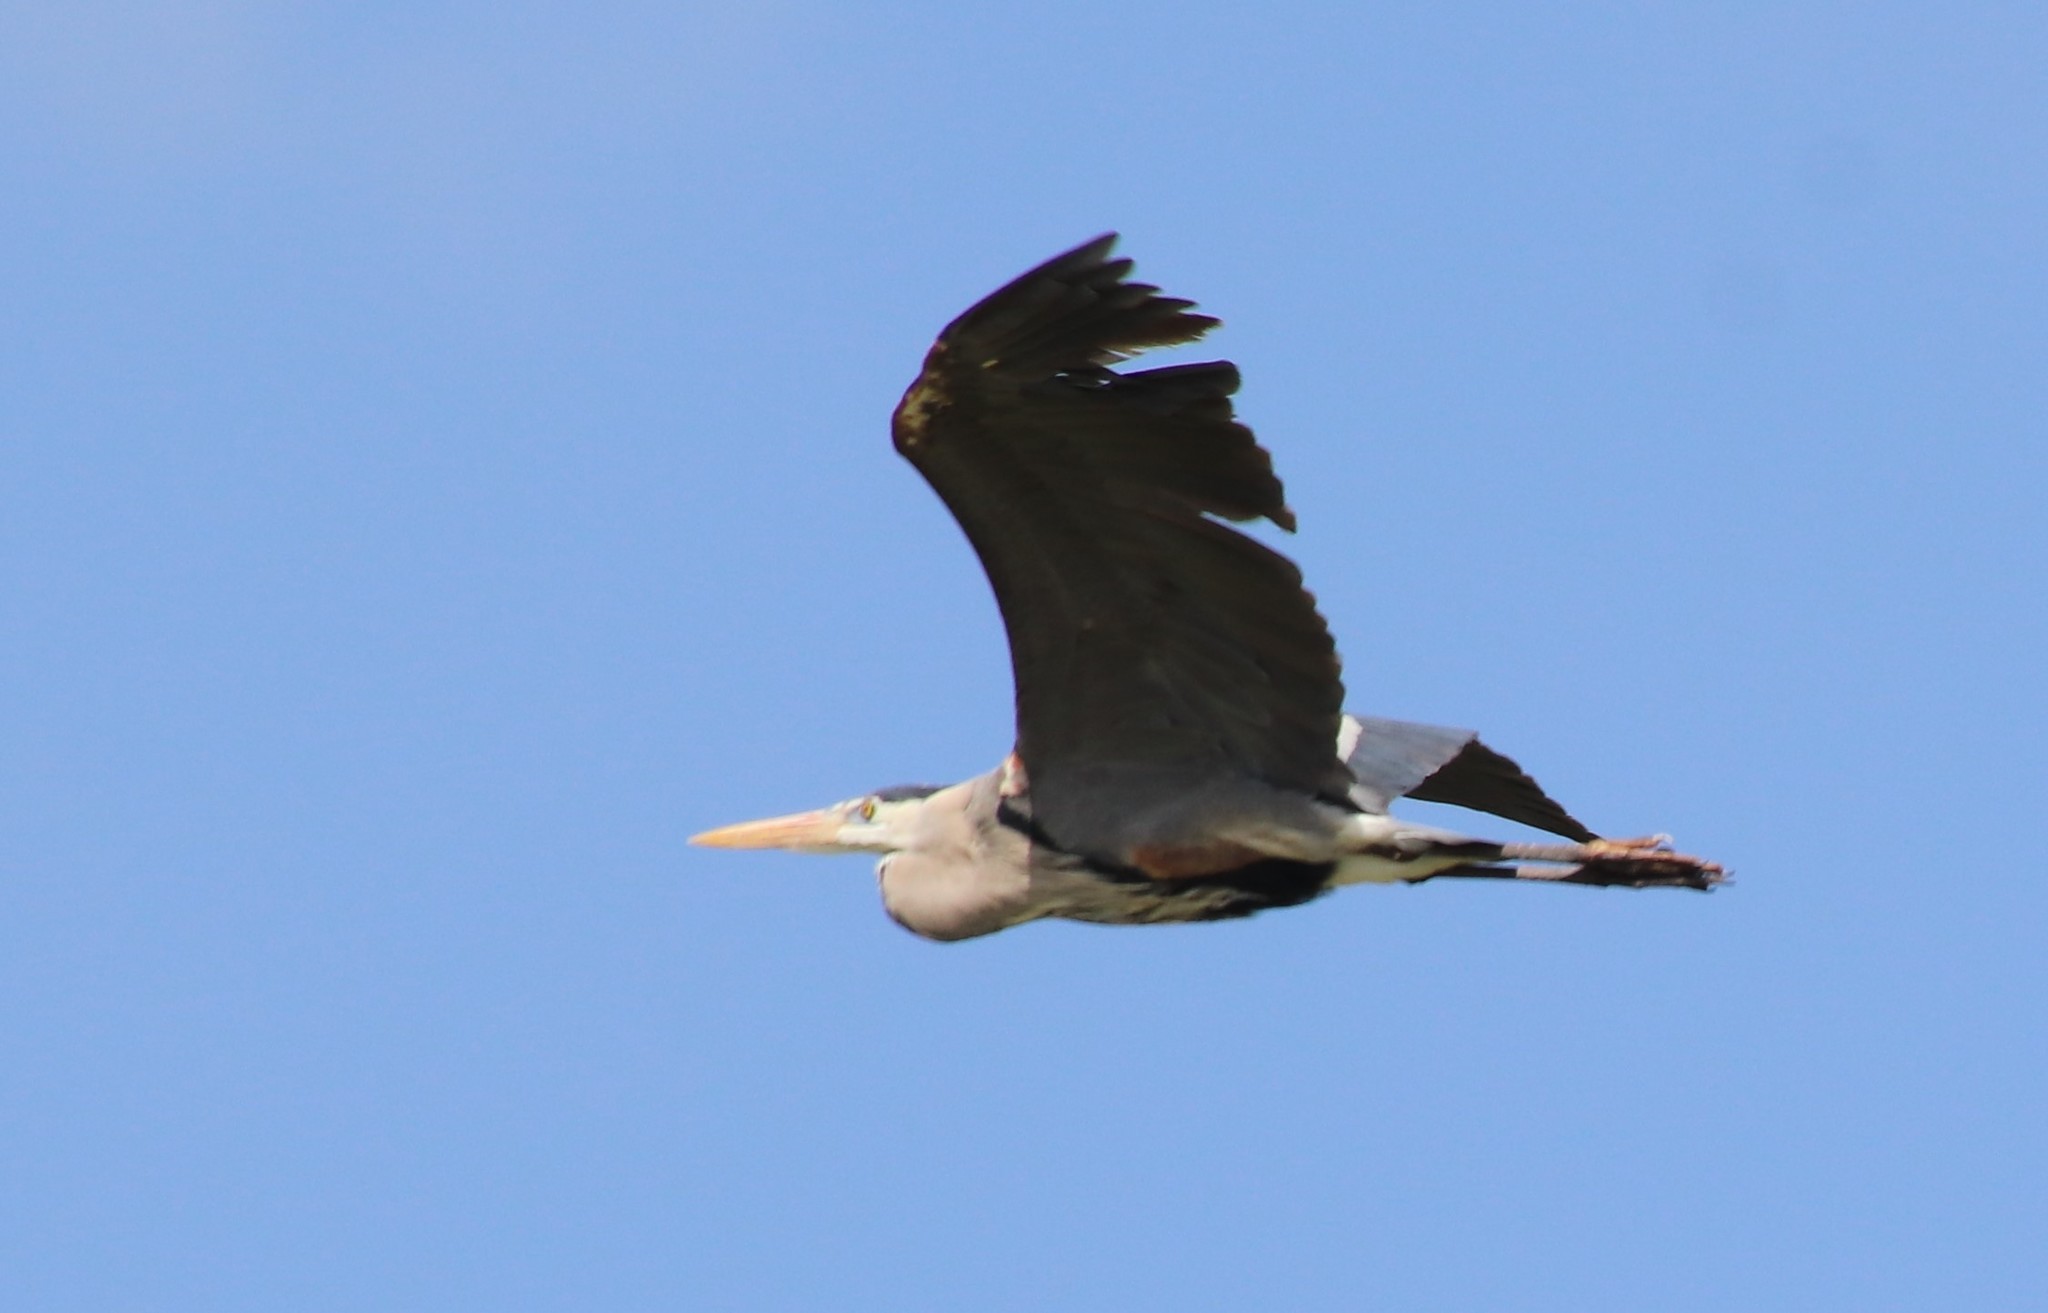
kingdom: Animalia
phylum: Chordata
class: Aves
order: Pelecaniformes
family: Ardeidae
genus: Ardea
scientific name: Ardea herodias
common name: Great blue heron
